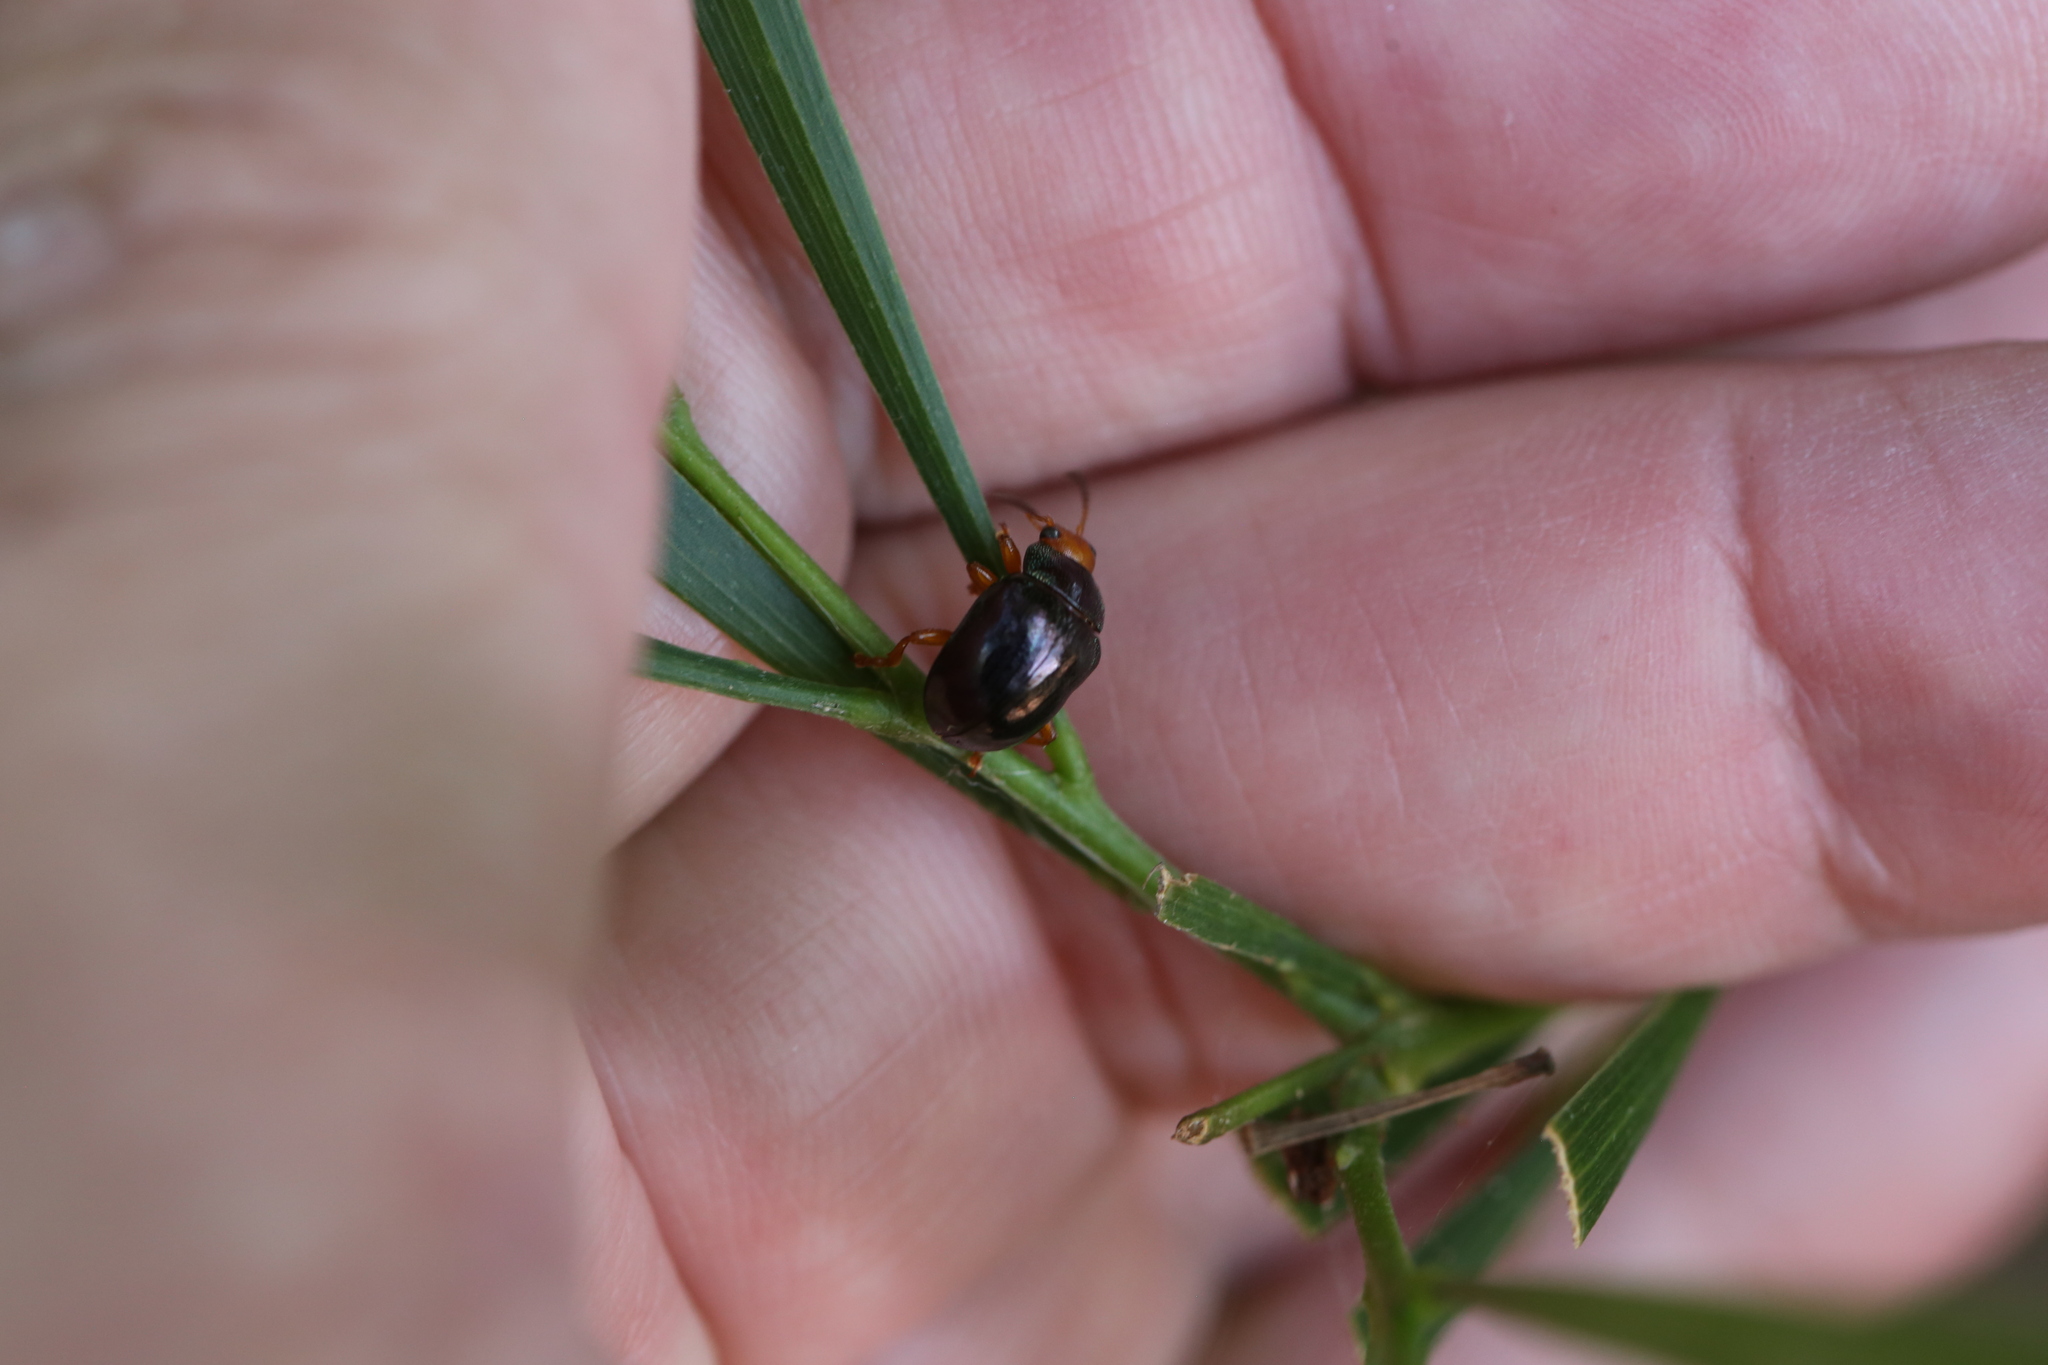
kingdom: Animalia
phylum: Arthropoda
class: Insecta
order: Coleoptera
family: Chrysomelidae
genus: Calomela
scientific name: Calomela
